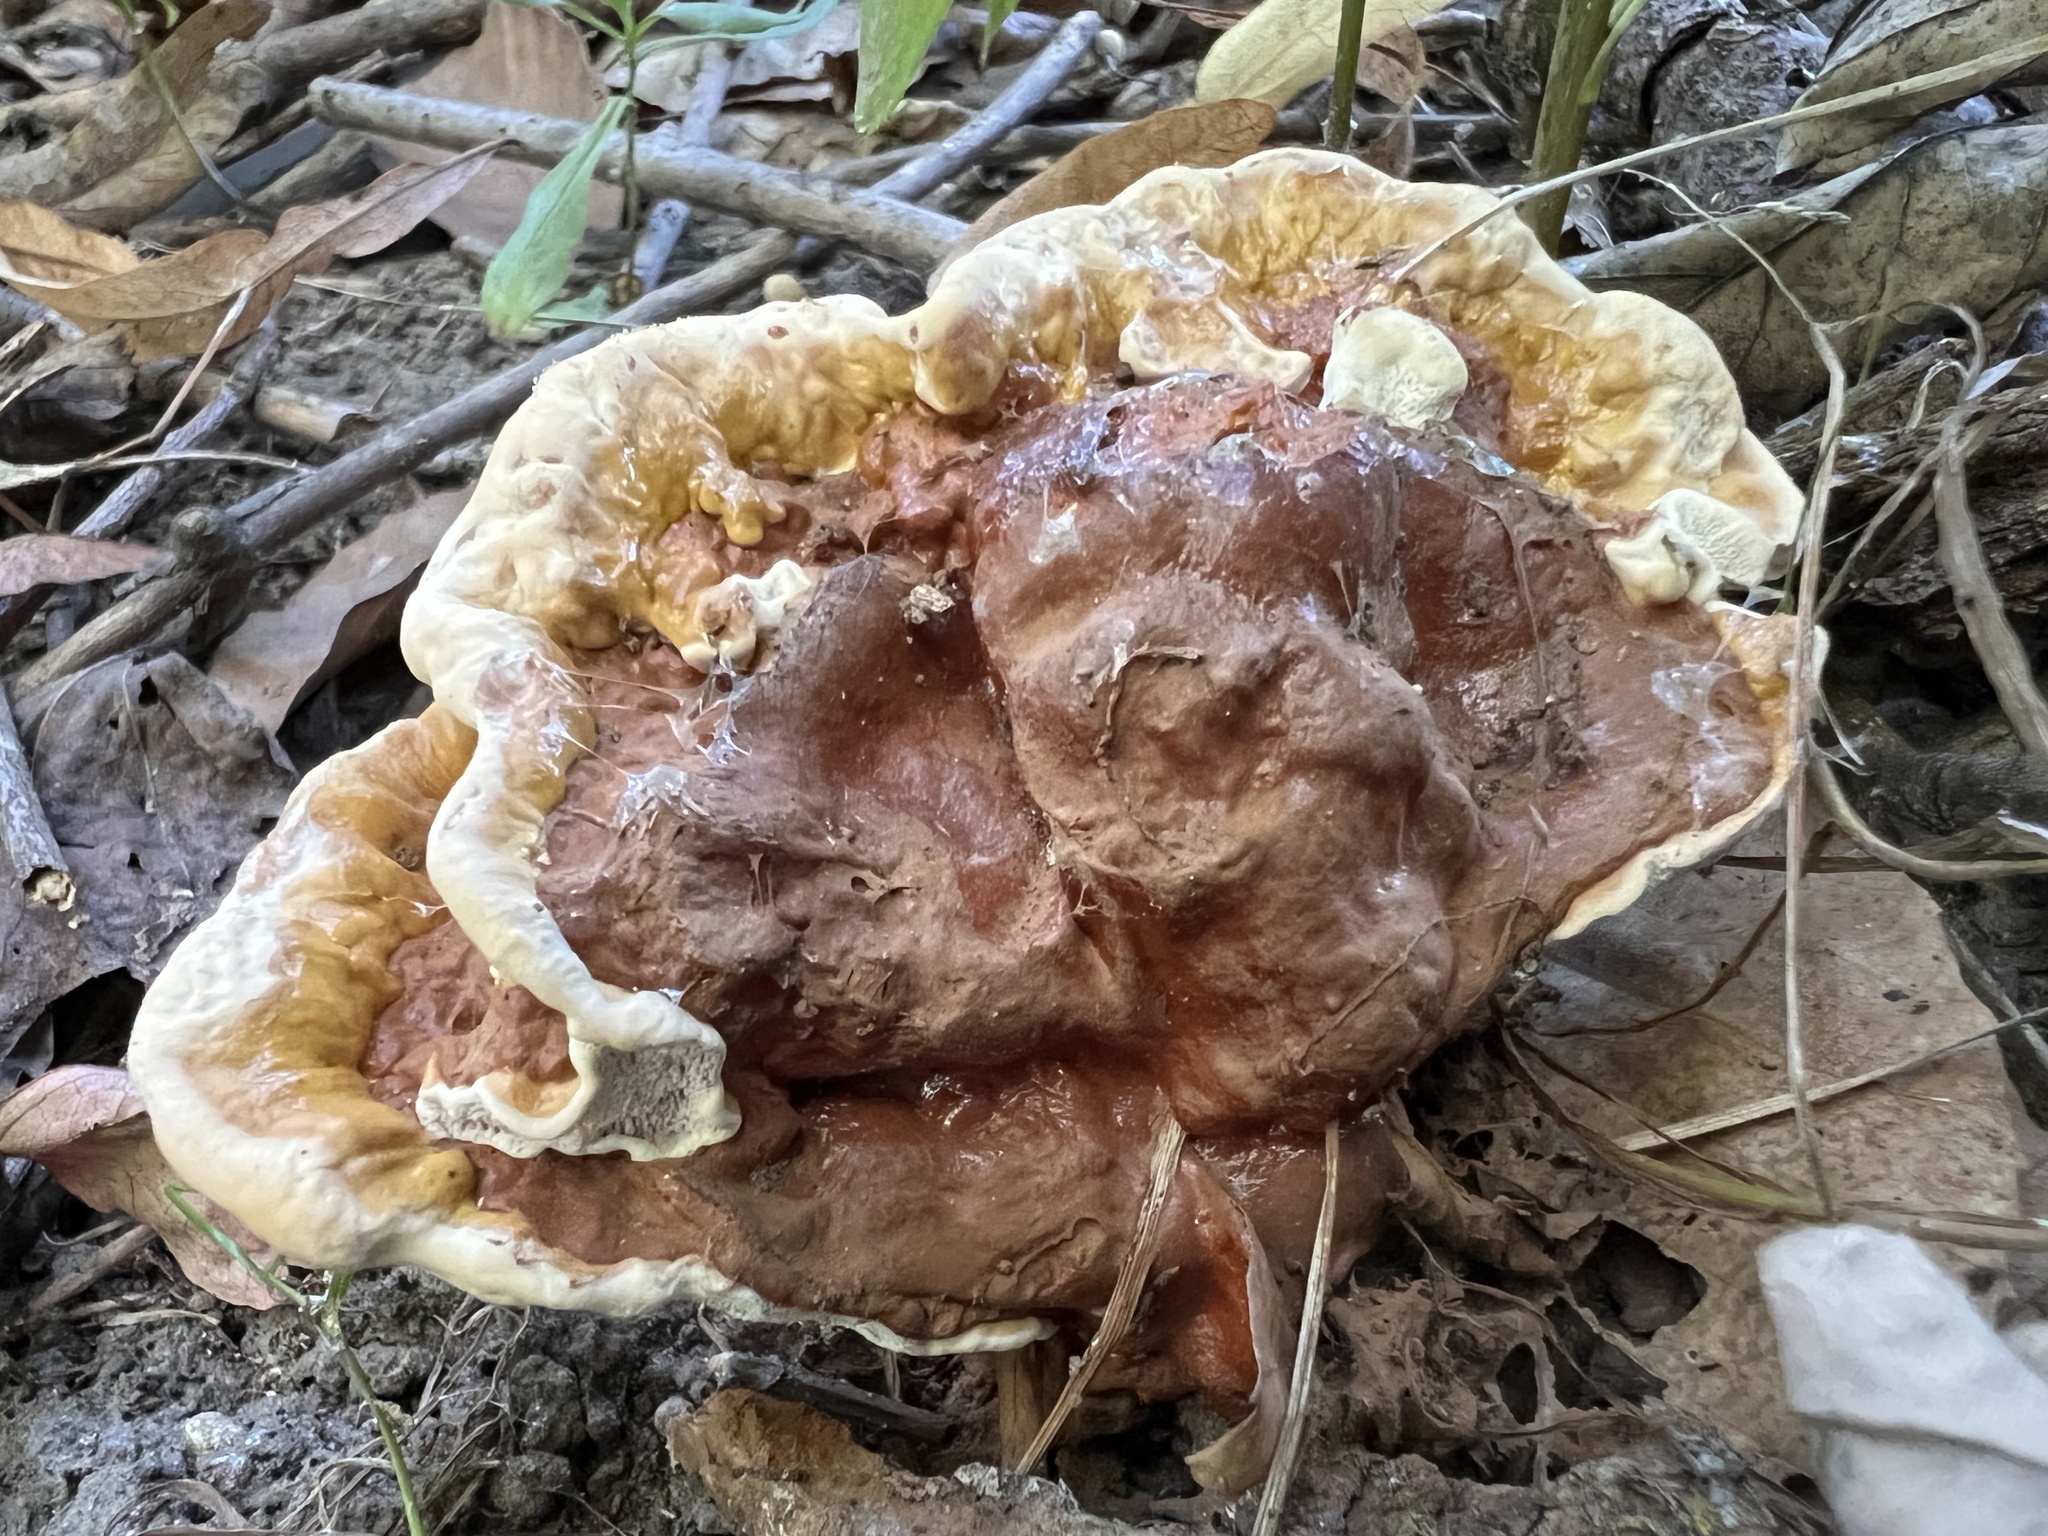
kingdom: Fungi
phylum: Basidiomycota
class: Agaricomycetes
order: Polyporales
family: Polyporaceae
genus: Ganoderma
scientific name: Ganoderma resinaceum
